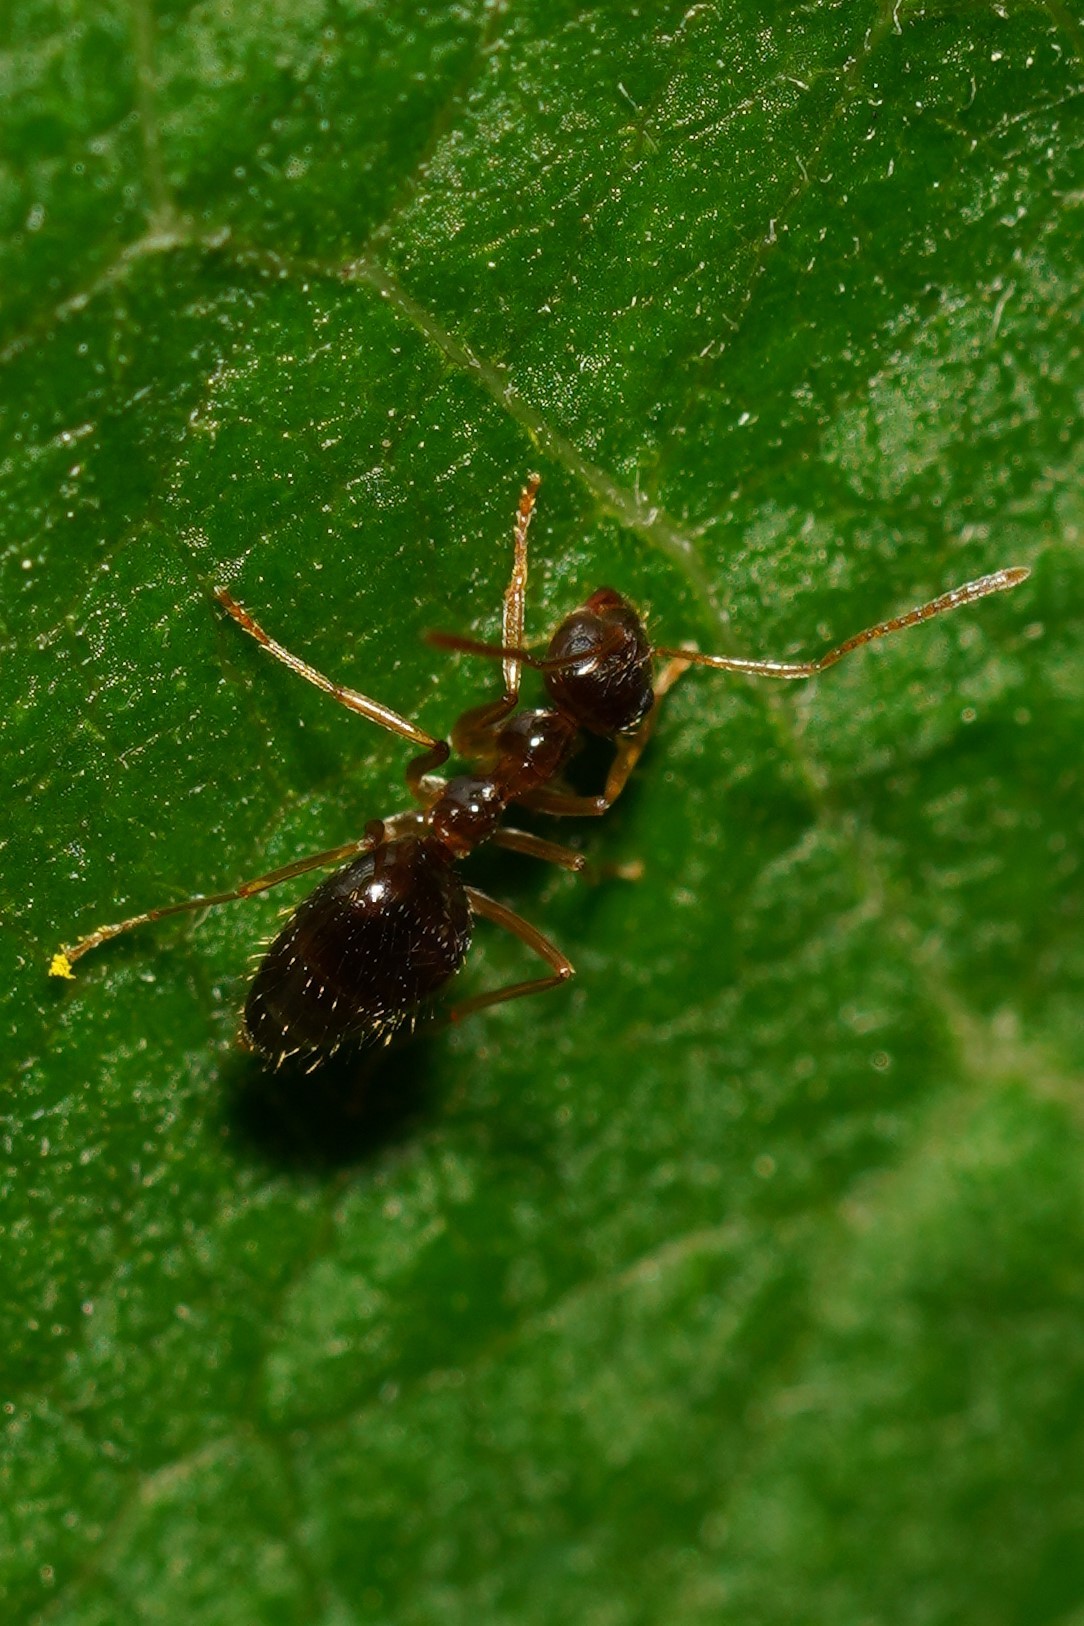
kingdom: Animalia
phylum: Arthropoda
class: Insecta
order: Hymenoptera
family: Formicidae
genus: Prenolepis
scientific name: Prenolepis imparis
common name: Small honey ant
